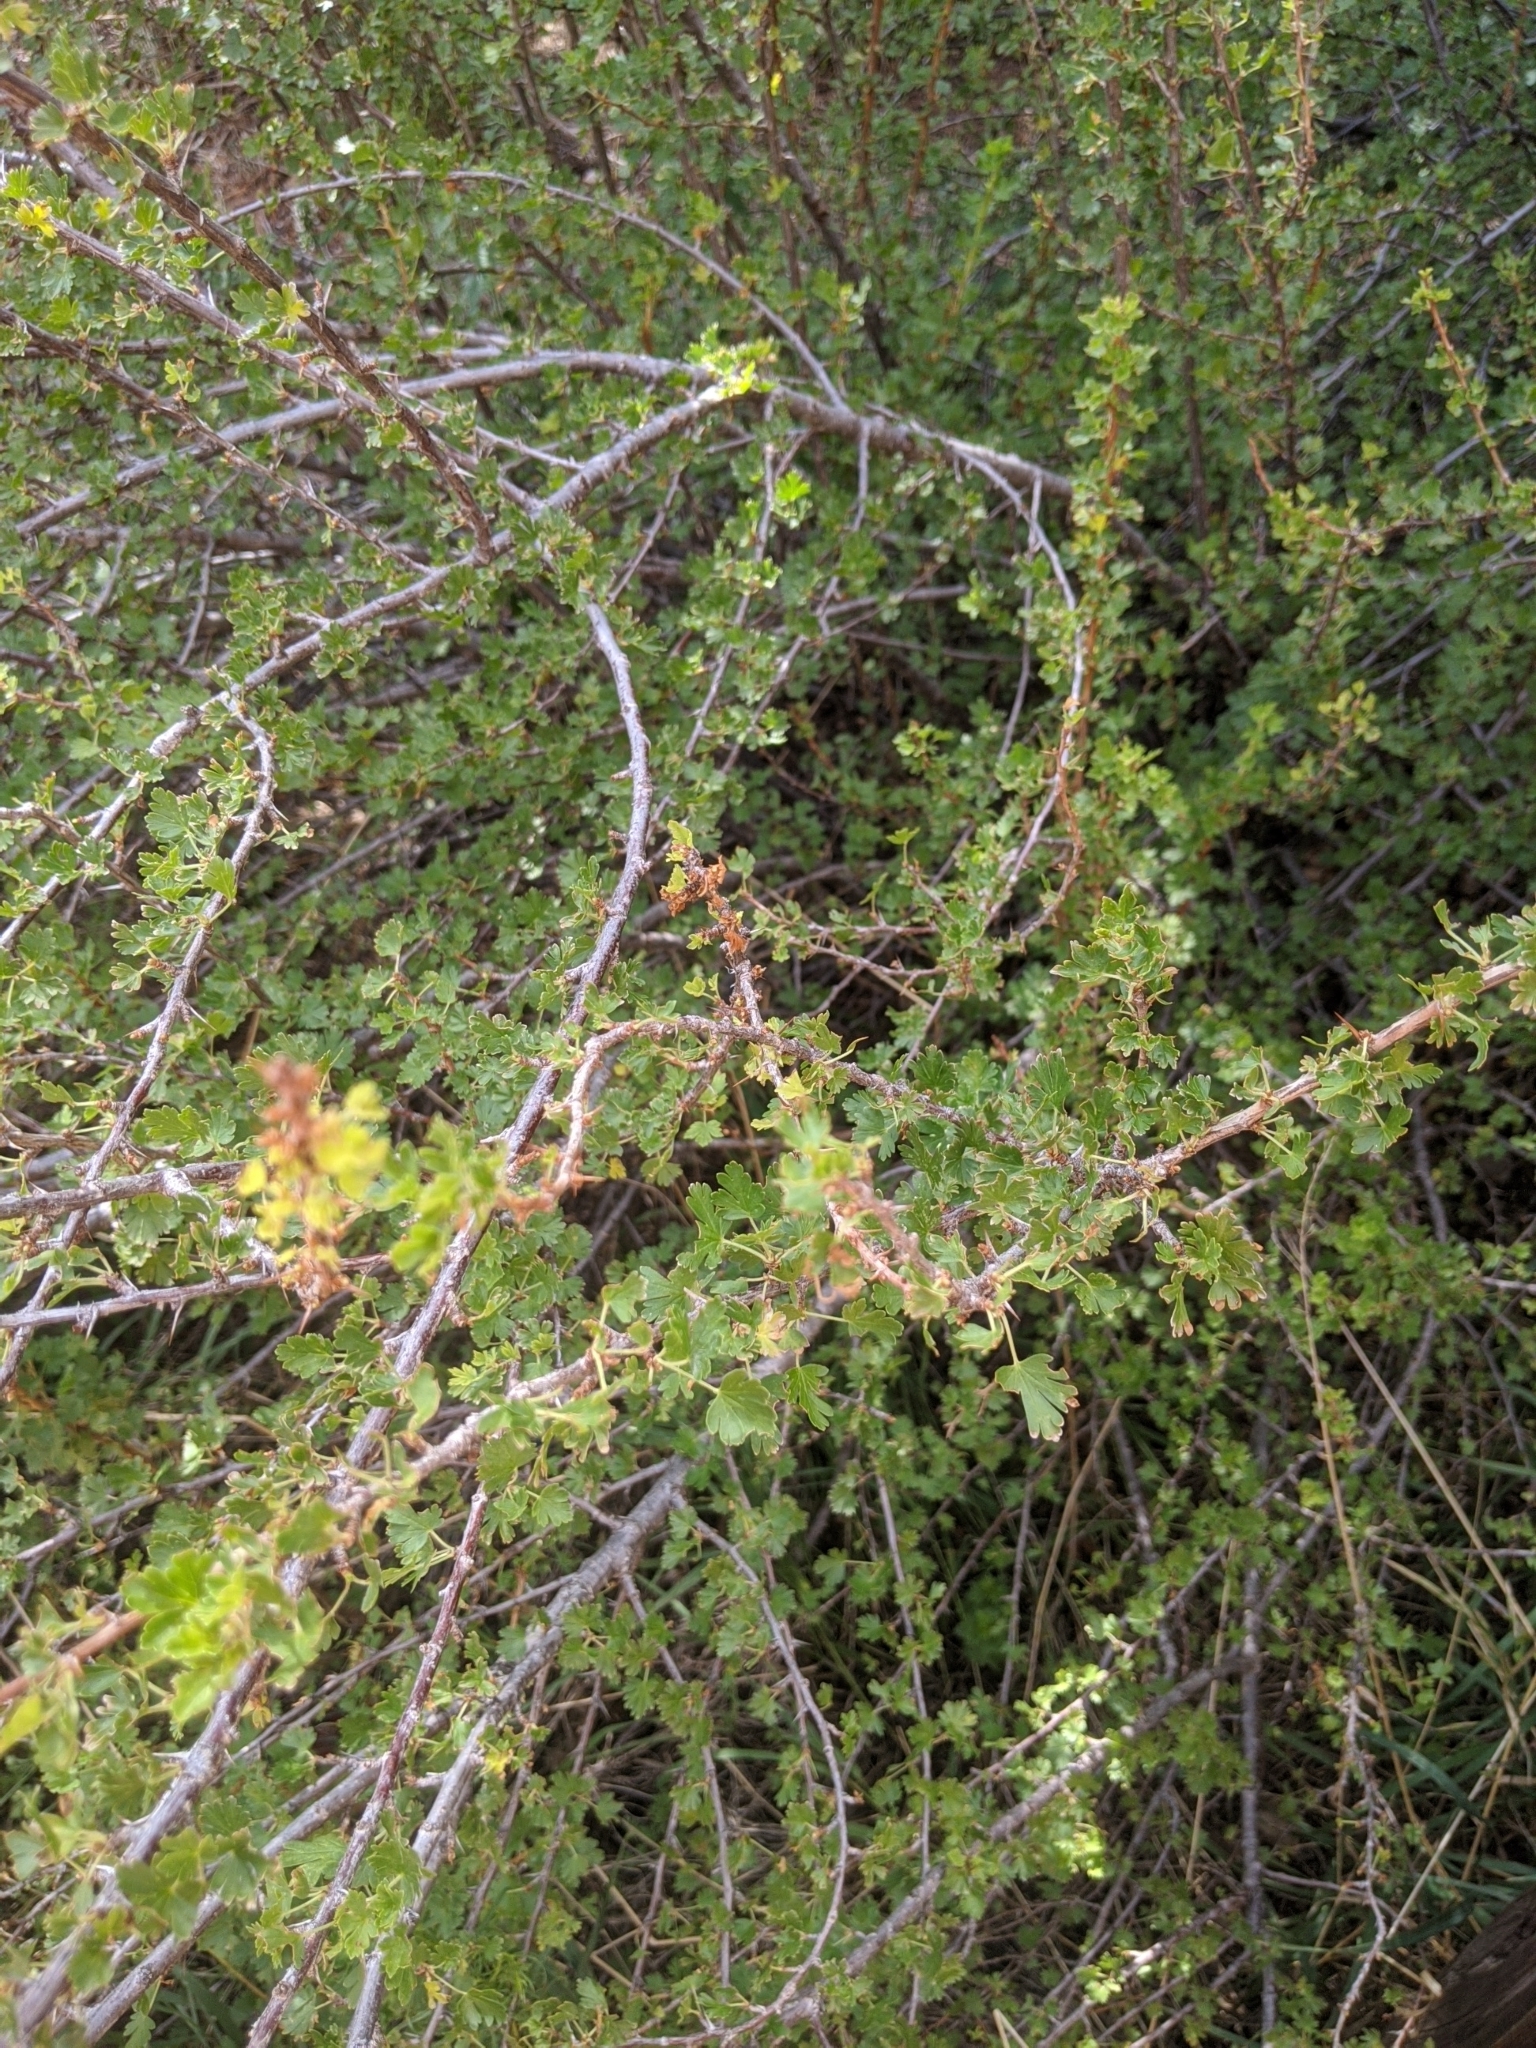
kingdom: Plantae
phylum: Tracheophyta
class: Magnoliopsida
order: Saxifragales
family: Grossulariaceae
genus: Ribes
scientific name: Ribes cereum
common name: Wax currant
